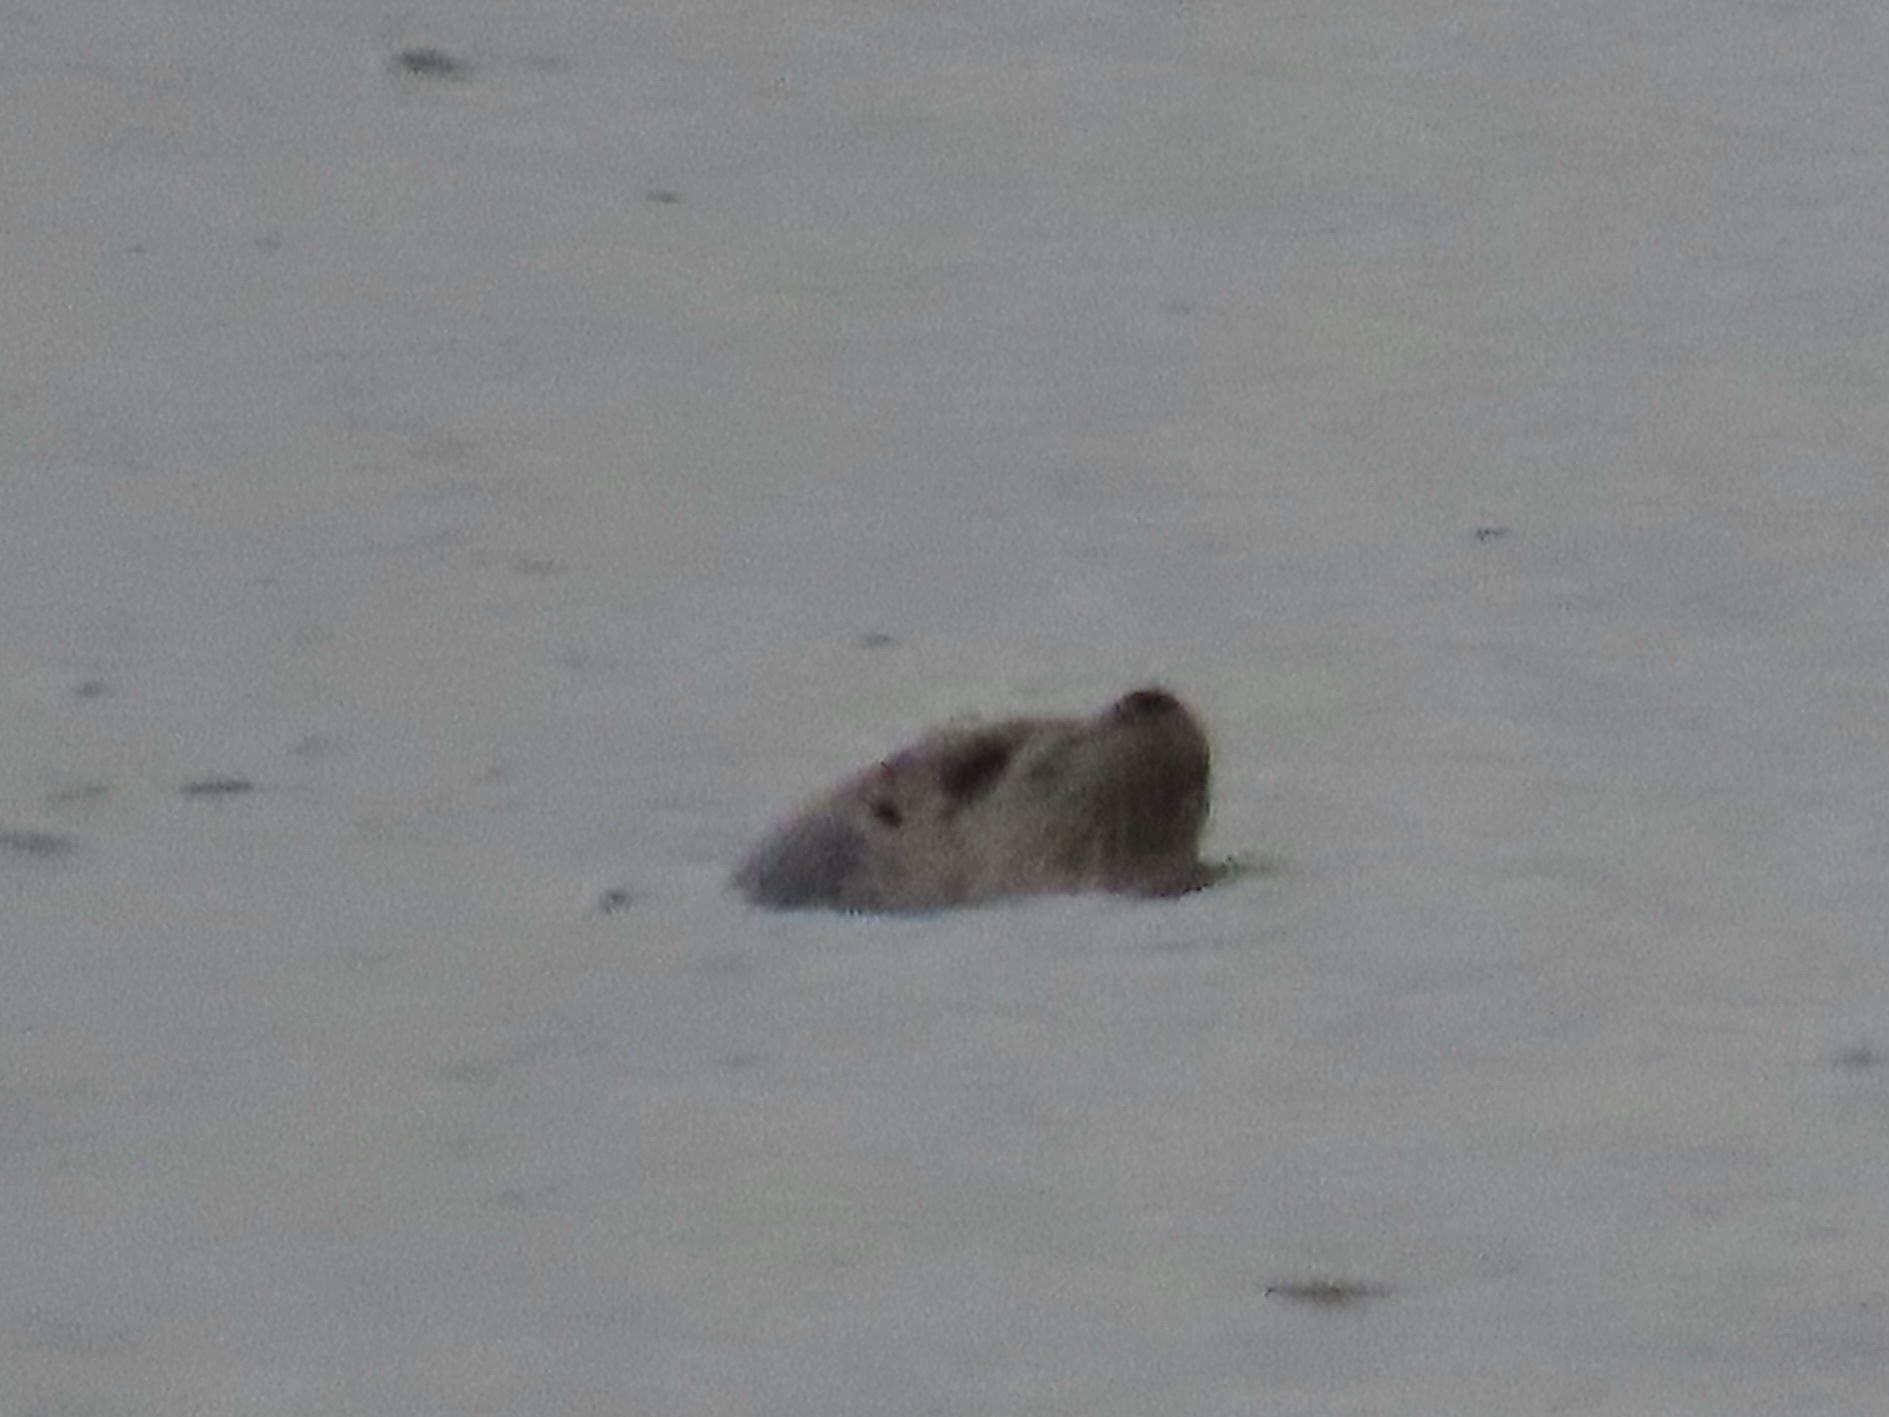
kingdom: Animalia
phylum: Chordata
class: Mammalia
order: Carnivora
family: Phocidae
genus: Phoca
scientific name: Phoca vitulina
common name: Harbor seal
